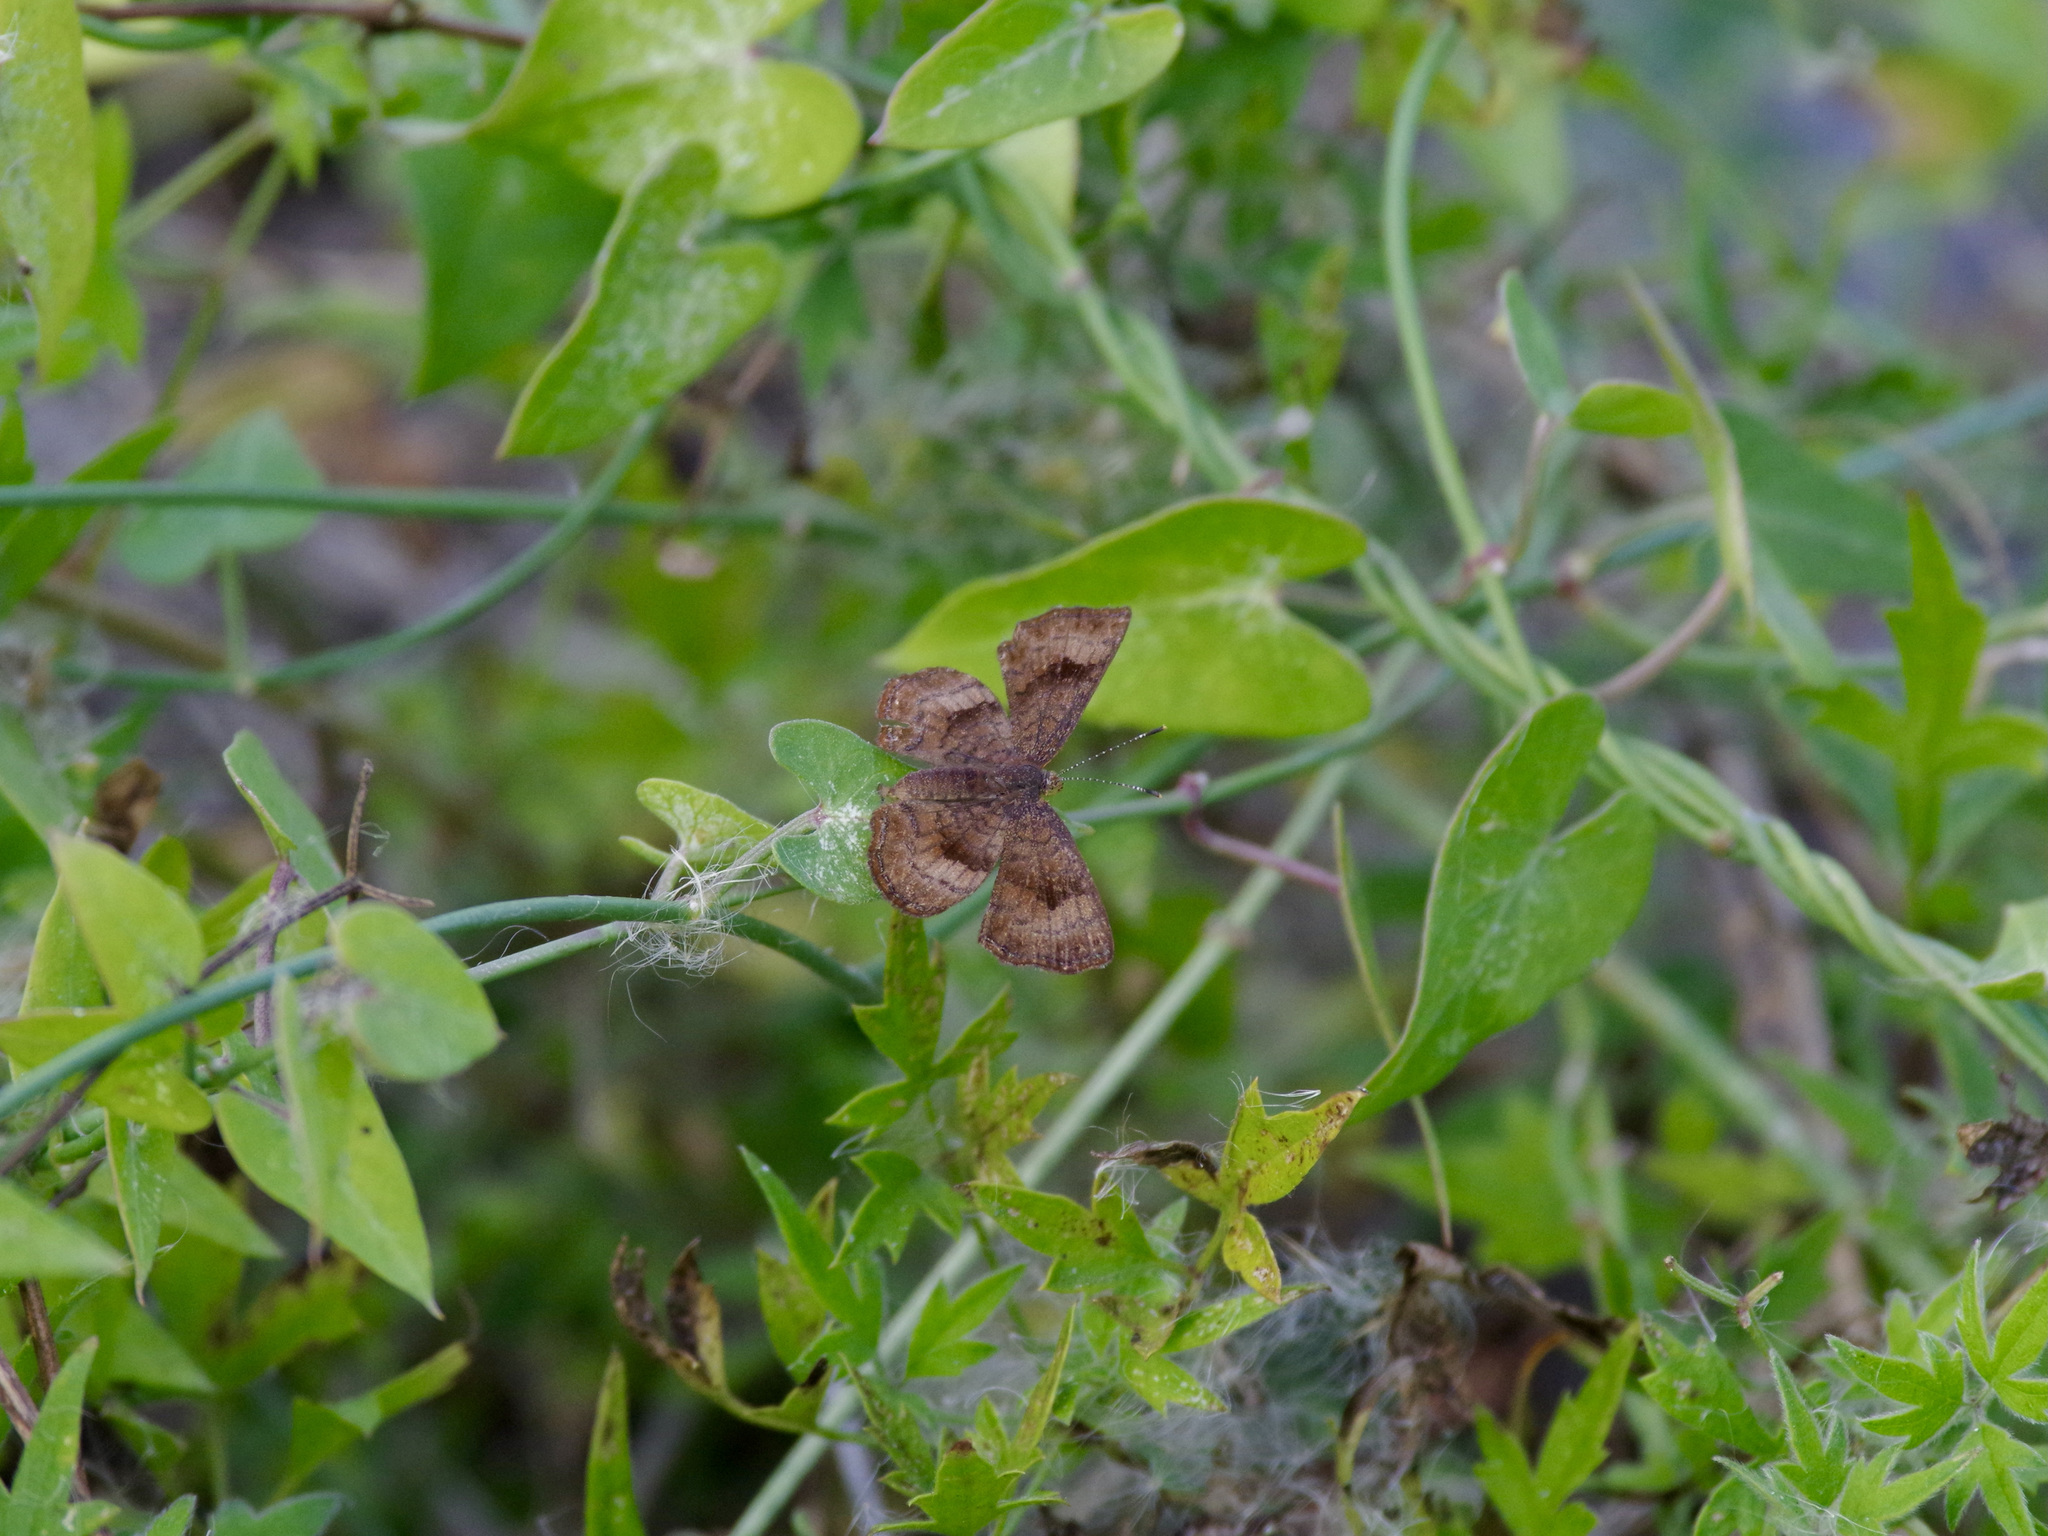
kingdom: Animalia
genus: Calephelis
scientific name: Calephelis nemesis
